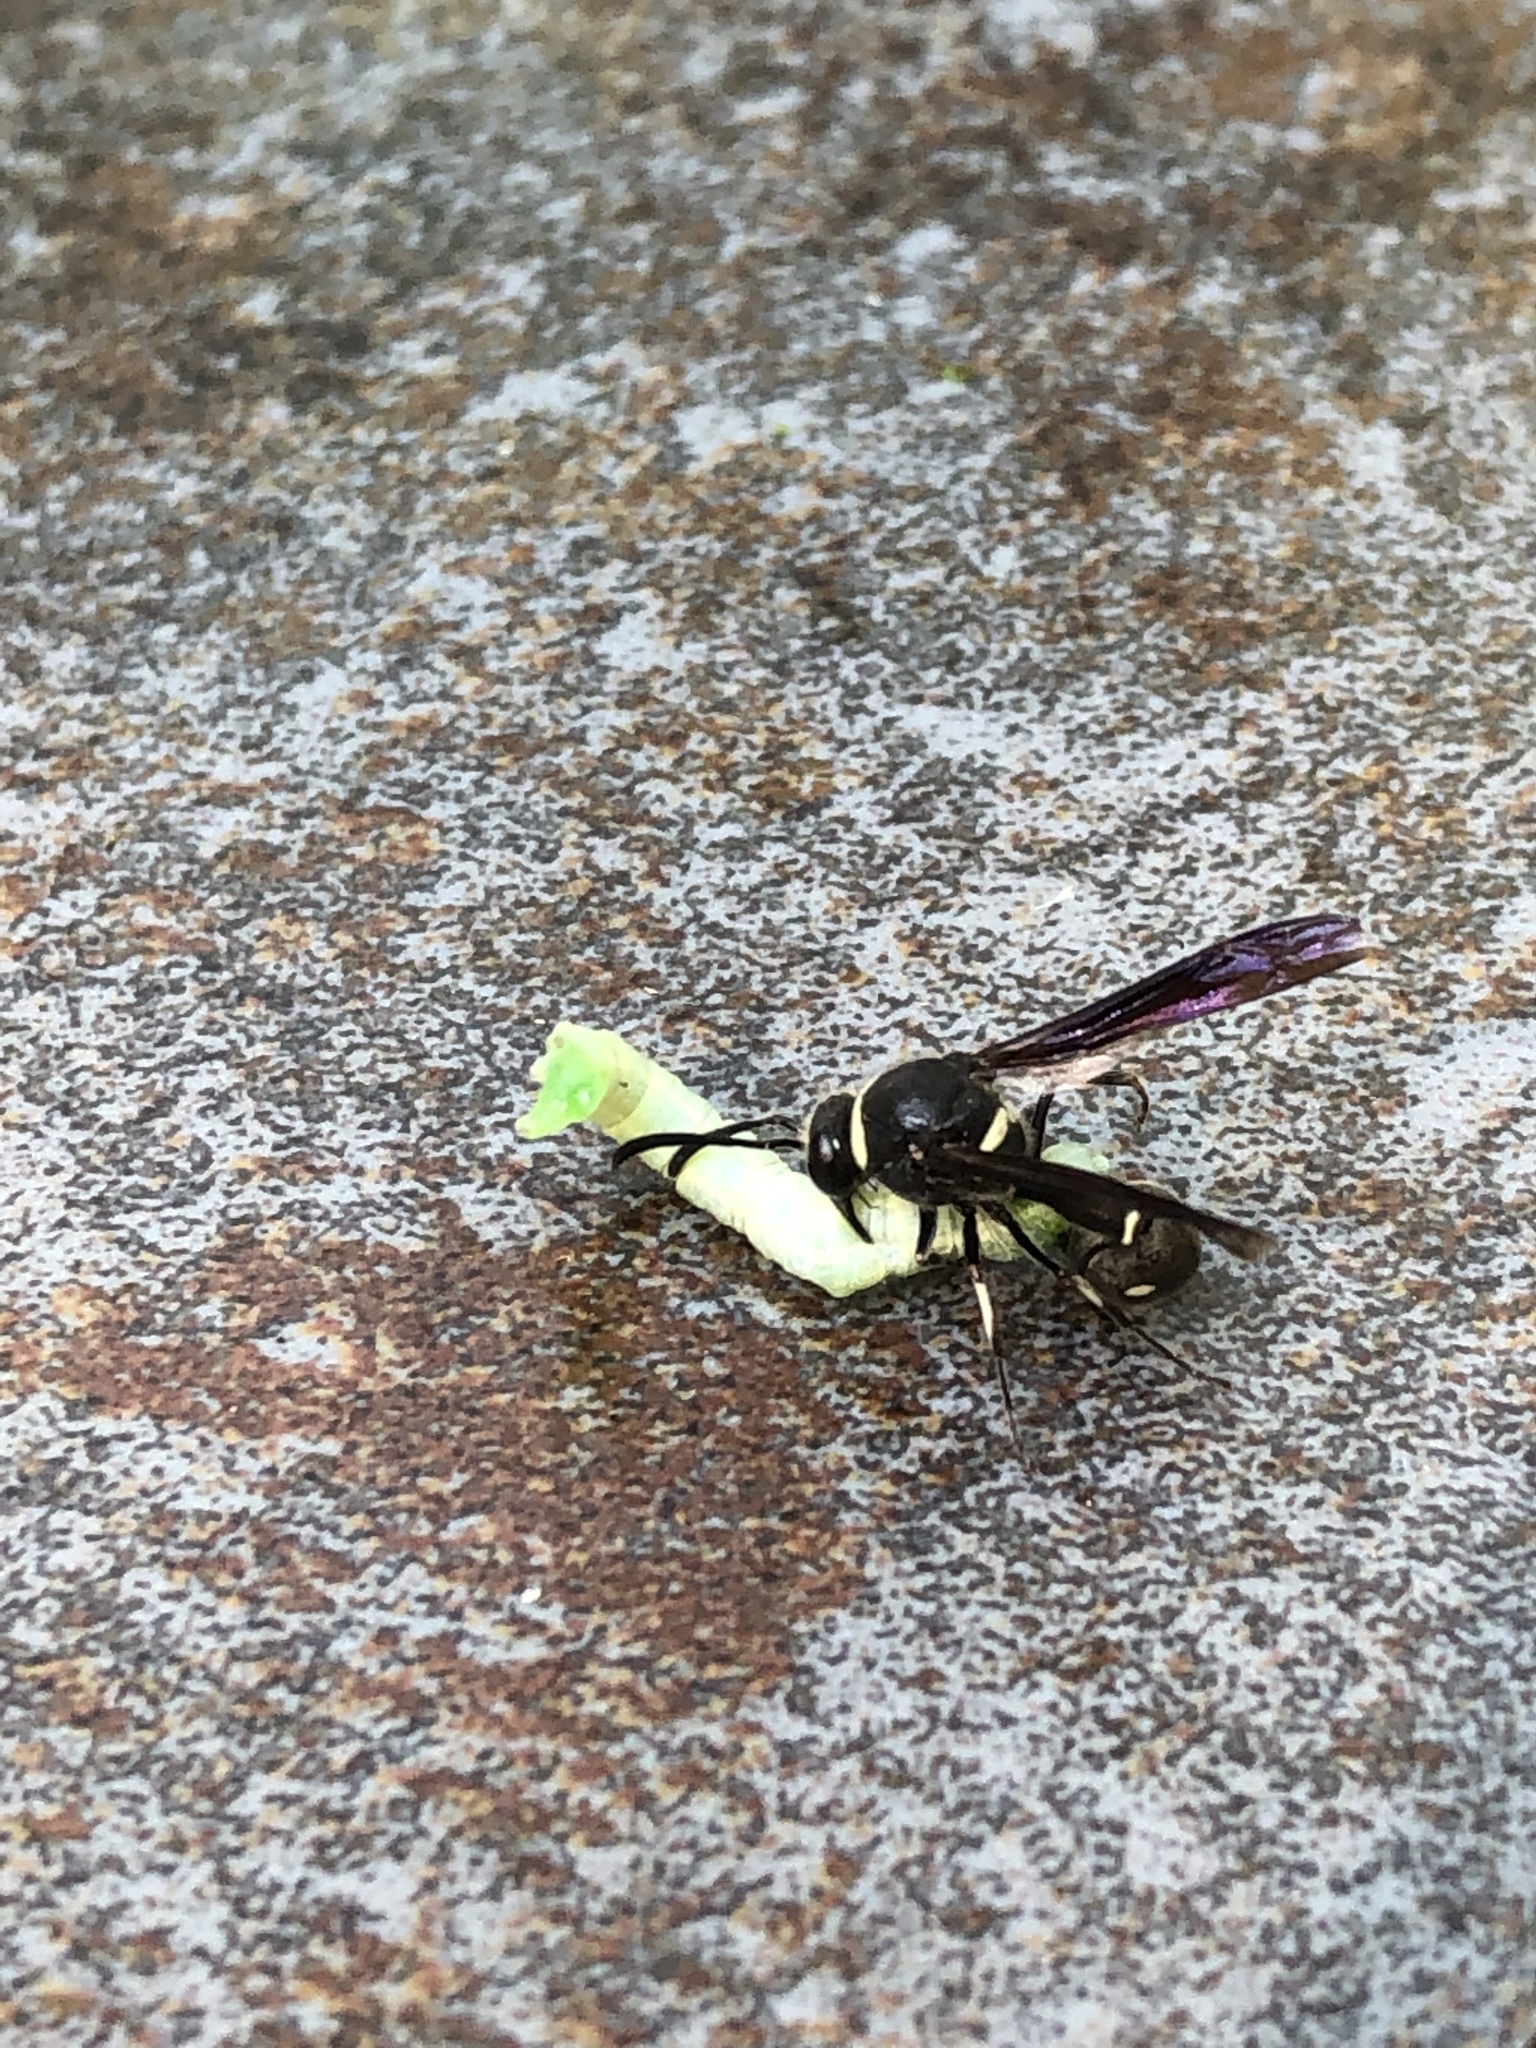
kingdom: Animalia
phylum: Arthropoda
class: Insecta
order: Hymenoptera
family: Vespidae
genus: Eumenes
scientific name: Eumenes fraternus
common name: Fraternal potter wasp
